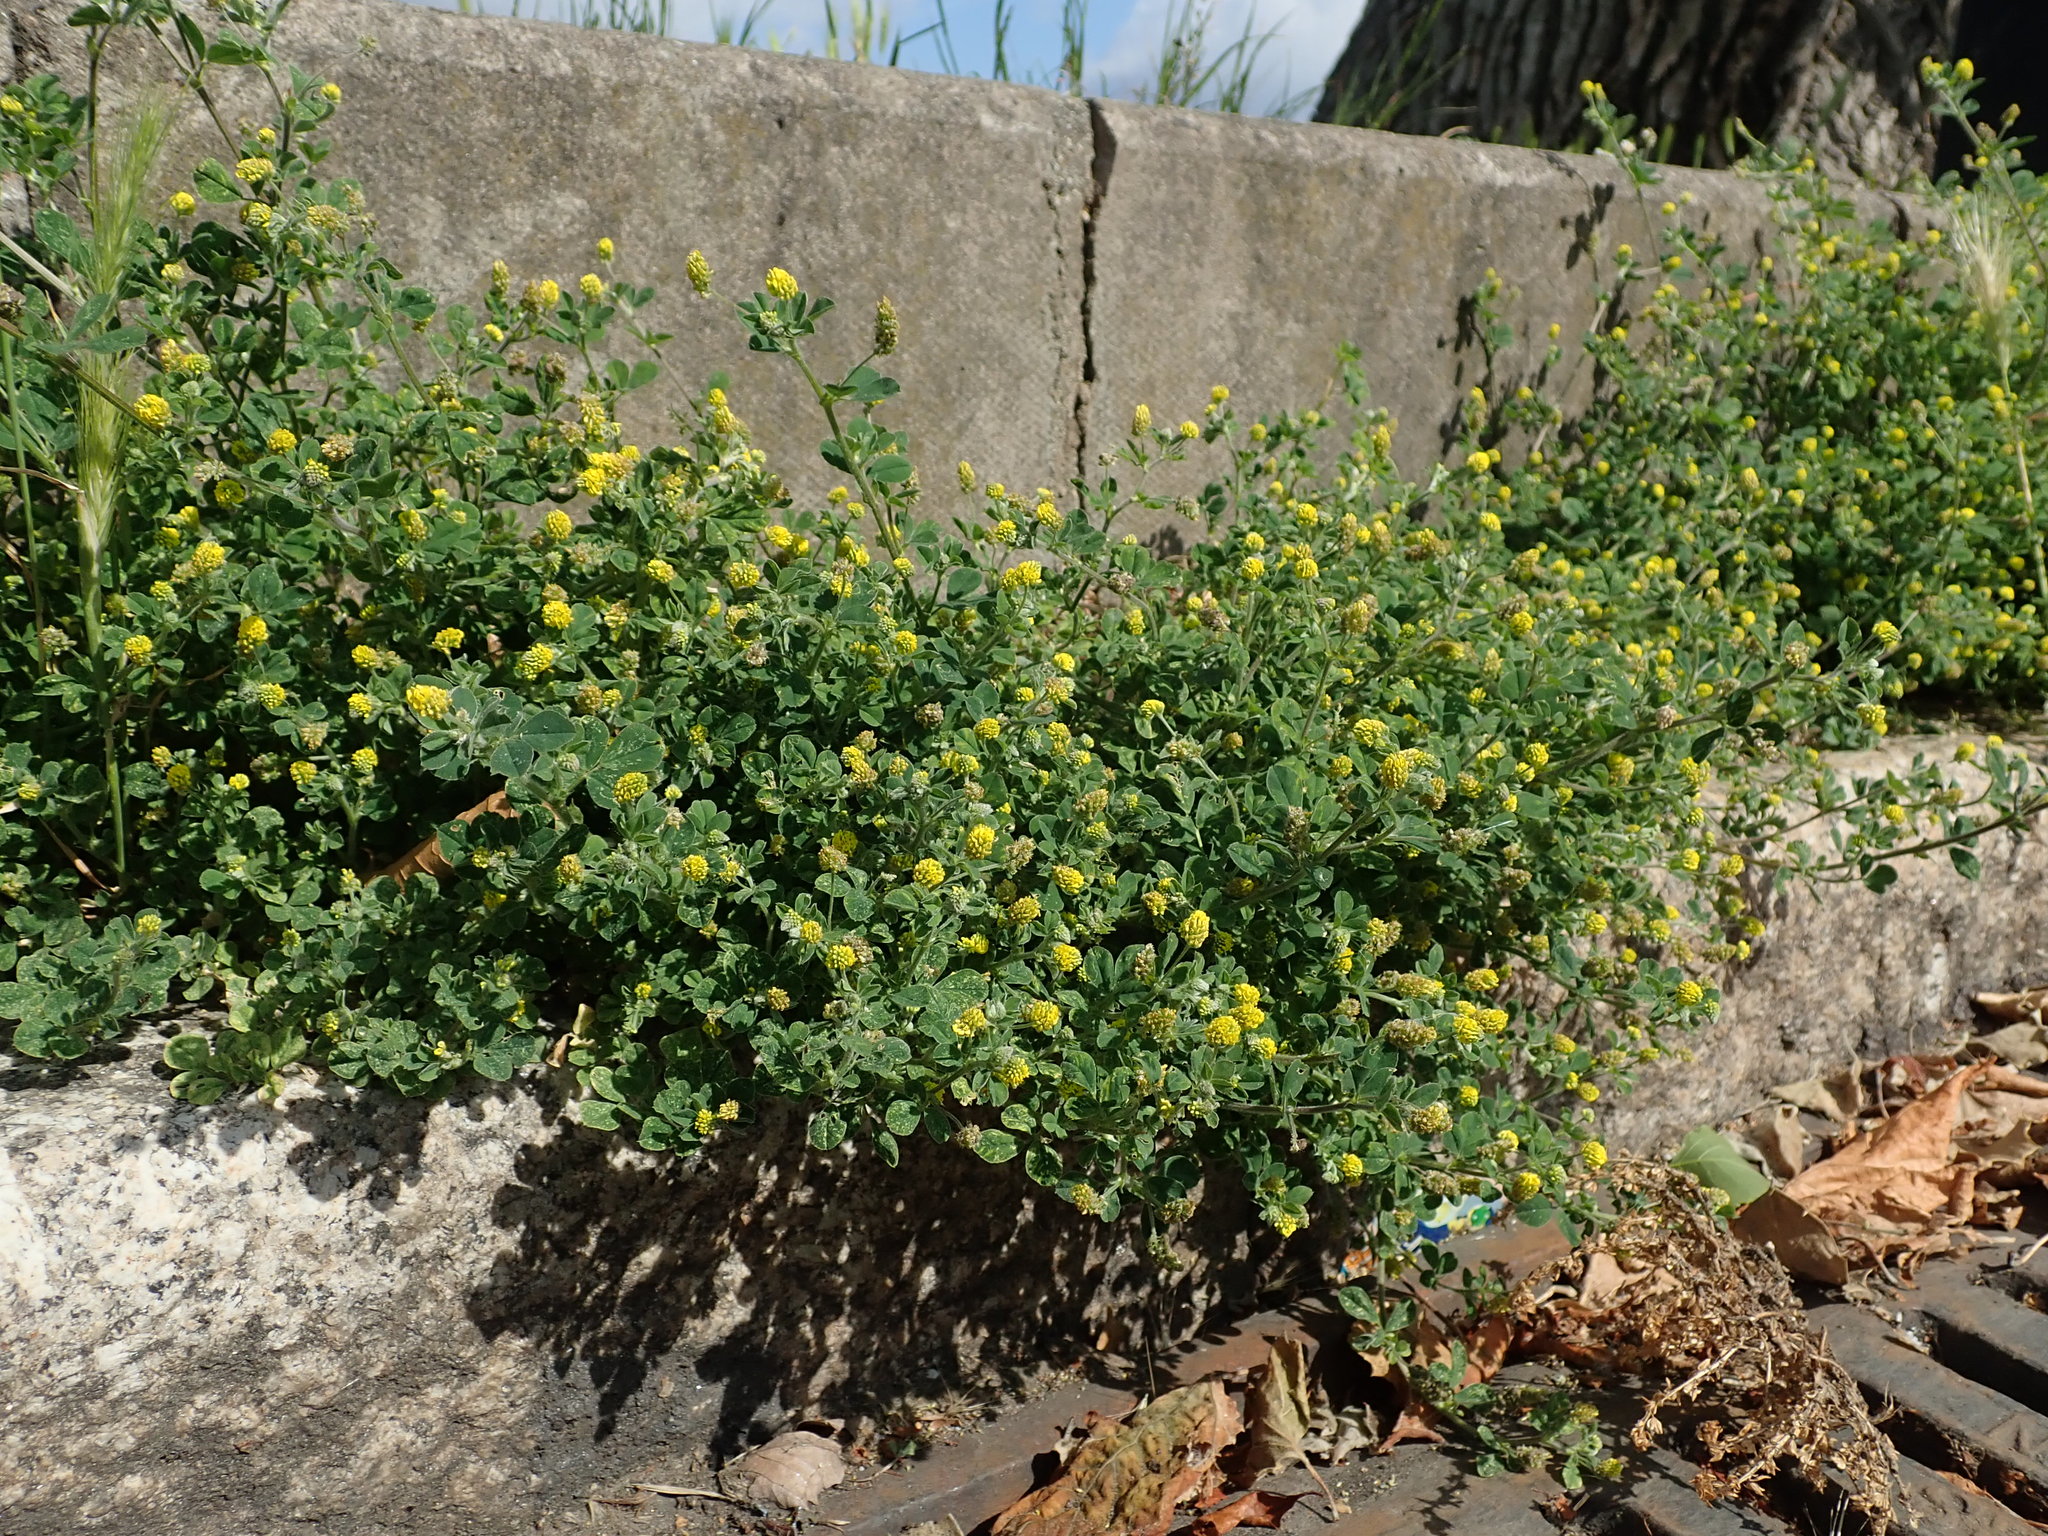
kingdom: Plantae
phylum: Tracheophyta
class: Magnoliopsida
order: Fabales
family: Fabaceae
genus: Medicago
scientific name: Medicago lupulina
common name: Black medick
